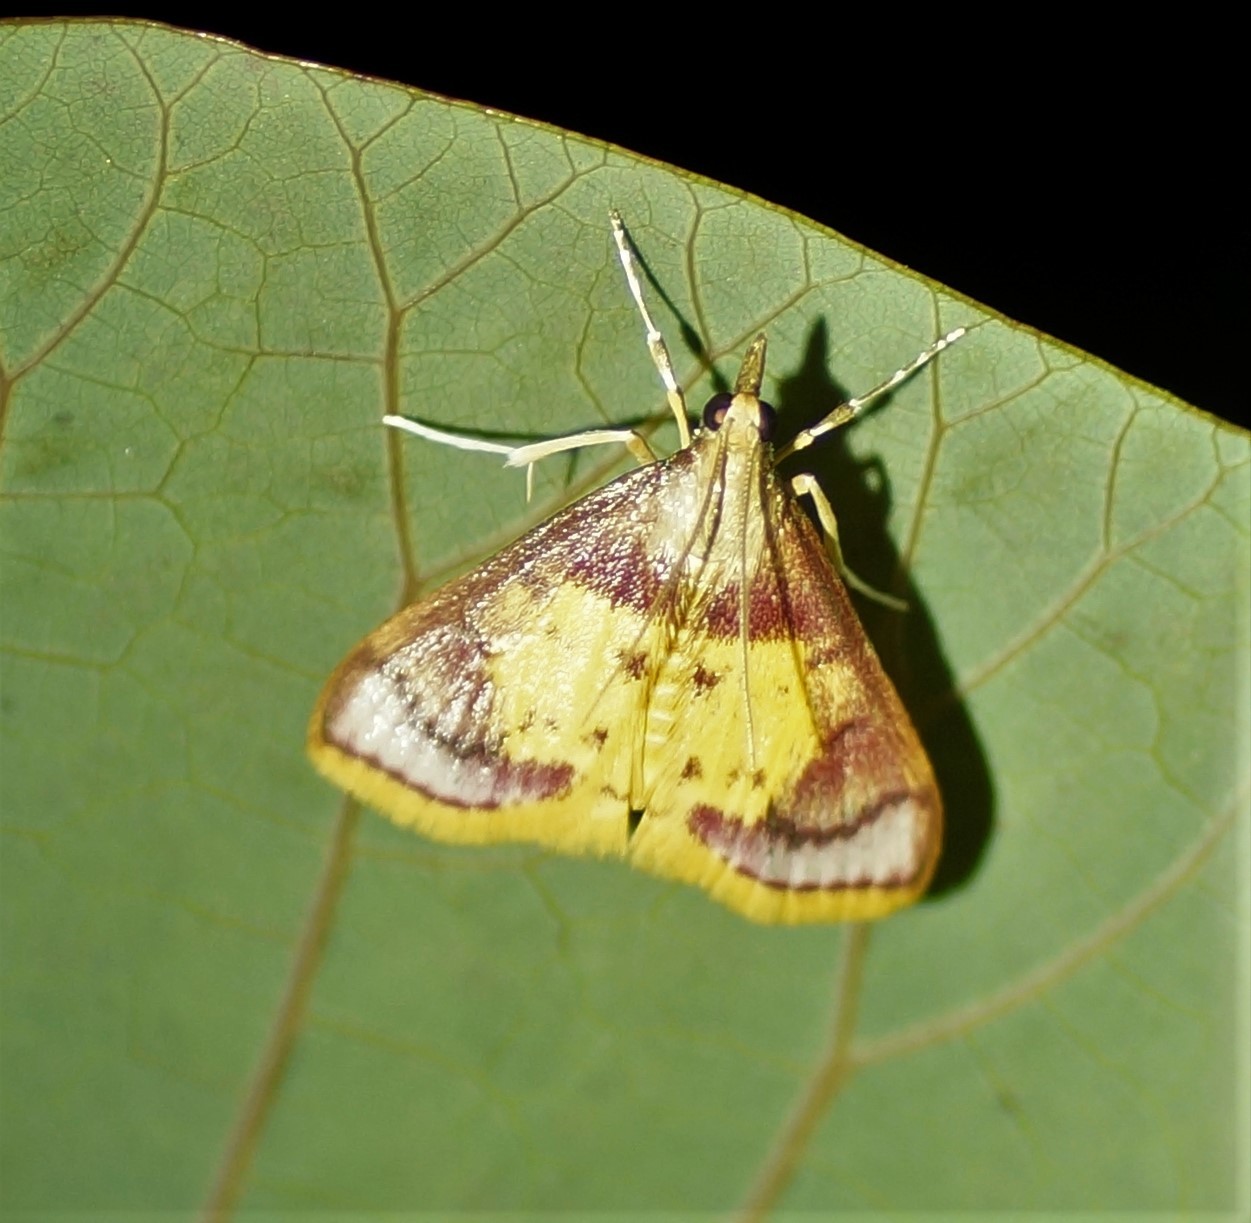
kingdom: Animalia
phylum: Arthropoda
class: Insecta
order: Lepidoptera
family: Crambidae
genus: Trigonoorda
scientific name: Trigonoorda gavisalis
